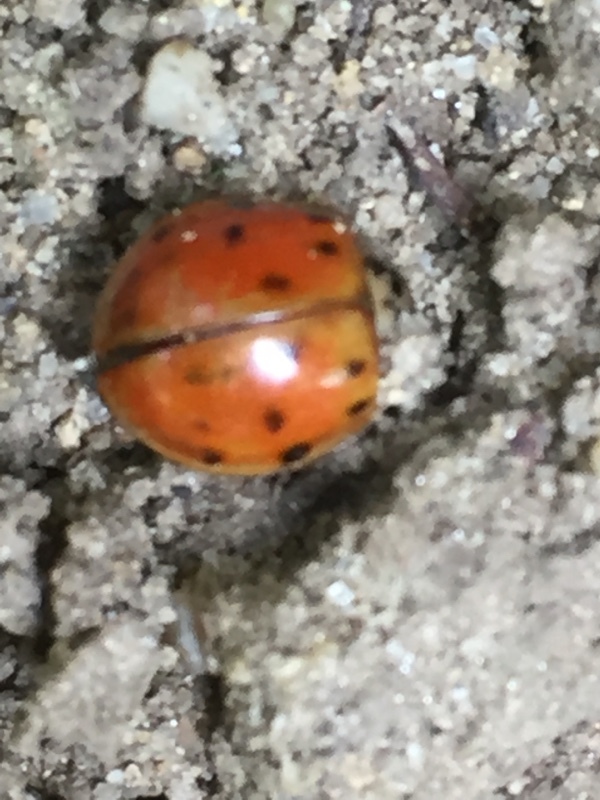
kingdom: Animalia
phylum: Arthropoda
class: Insecta
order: Coleoptera
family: Coccinellidae
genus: Harmonia
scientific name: Harmonia axyridis
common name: Harlequin ladybird
